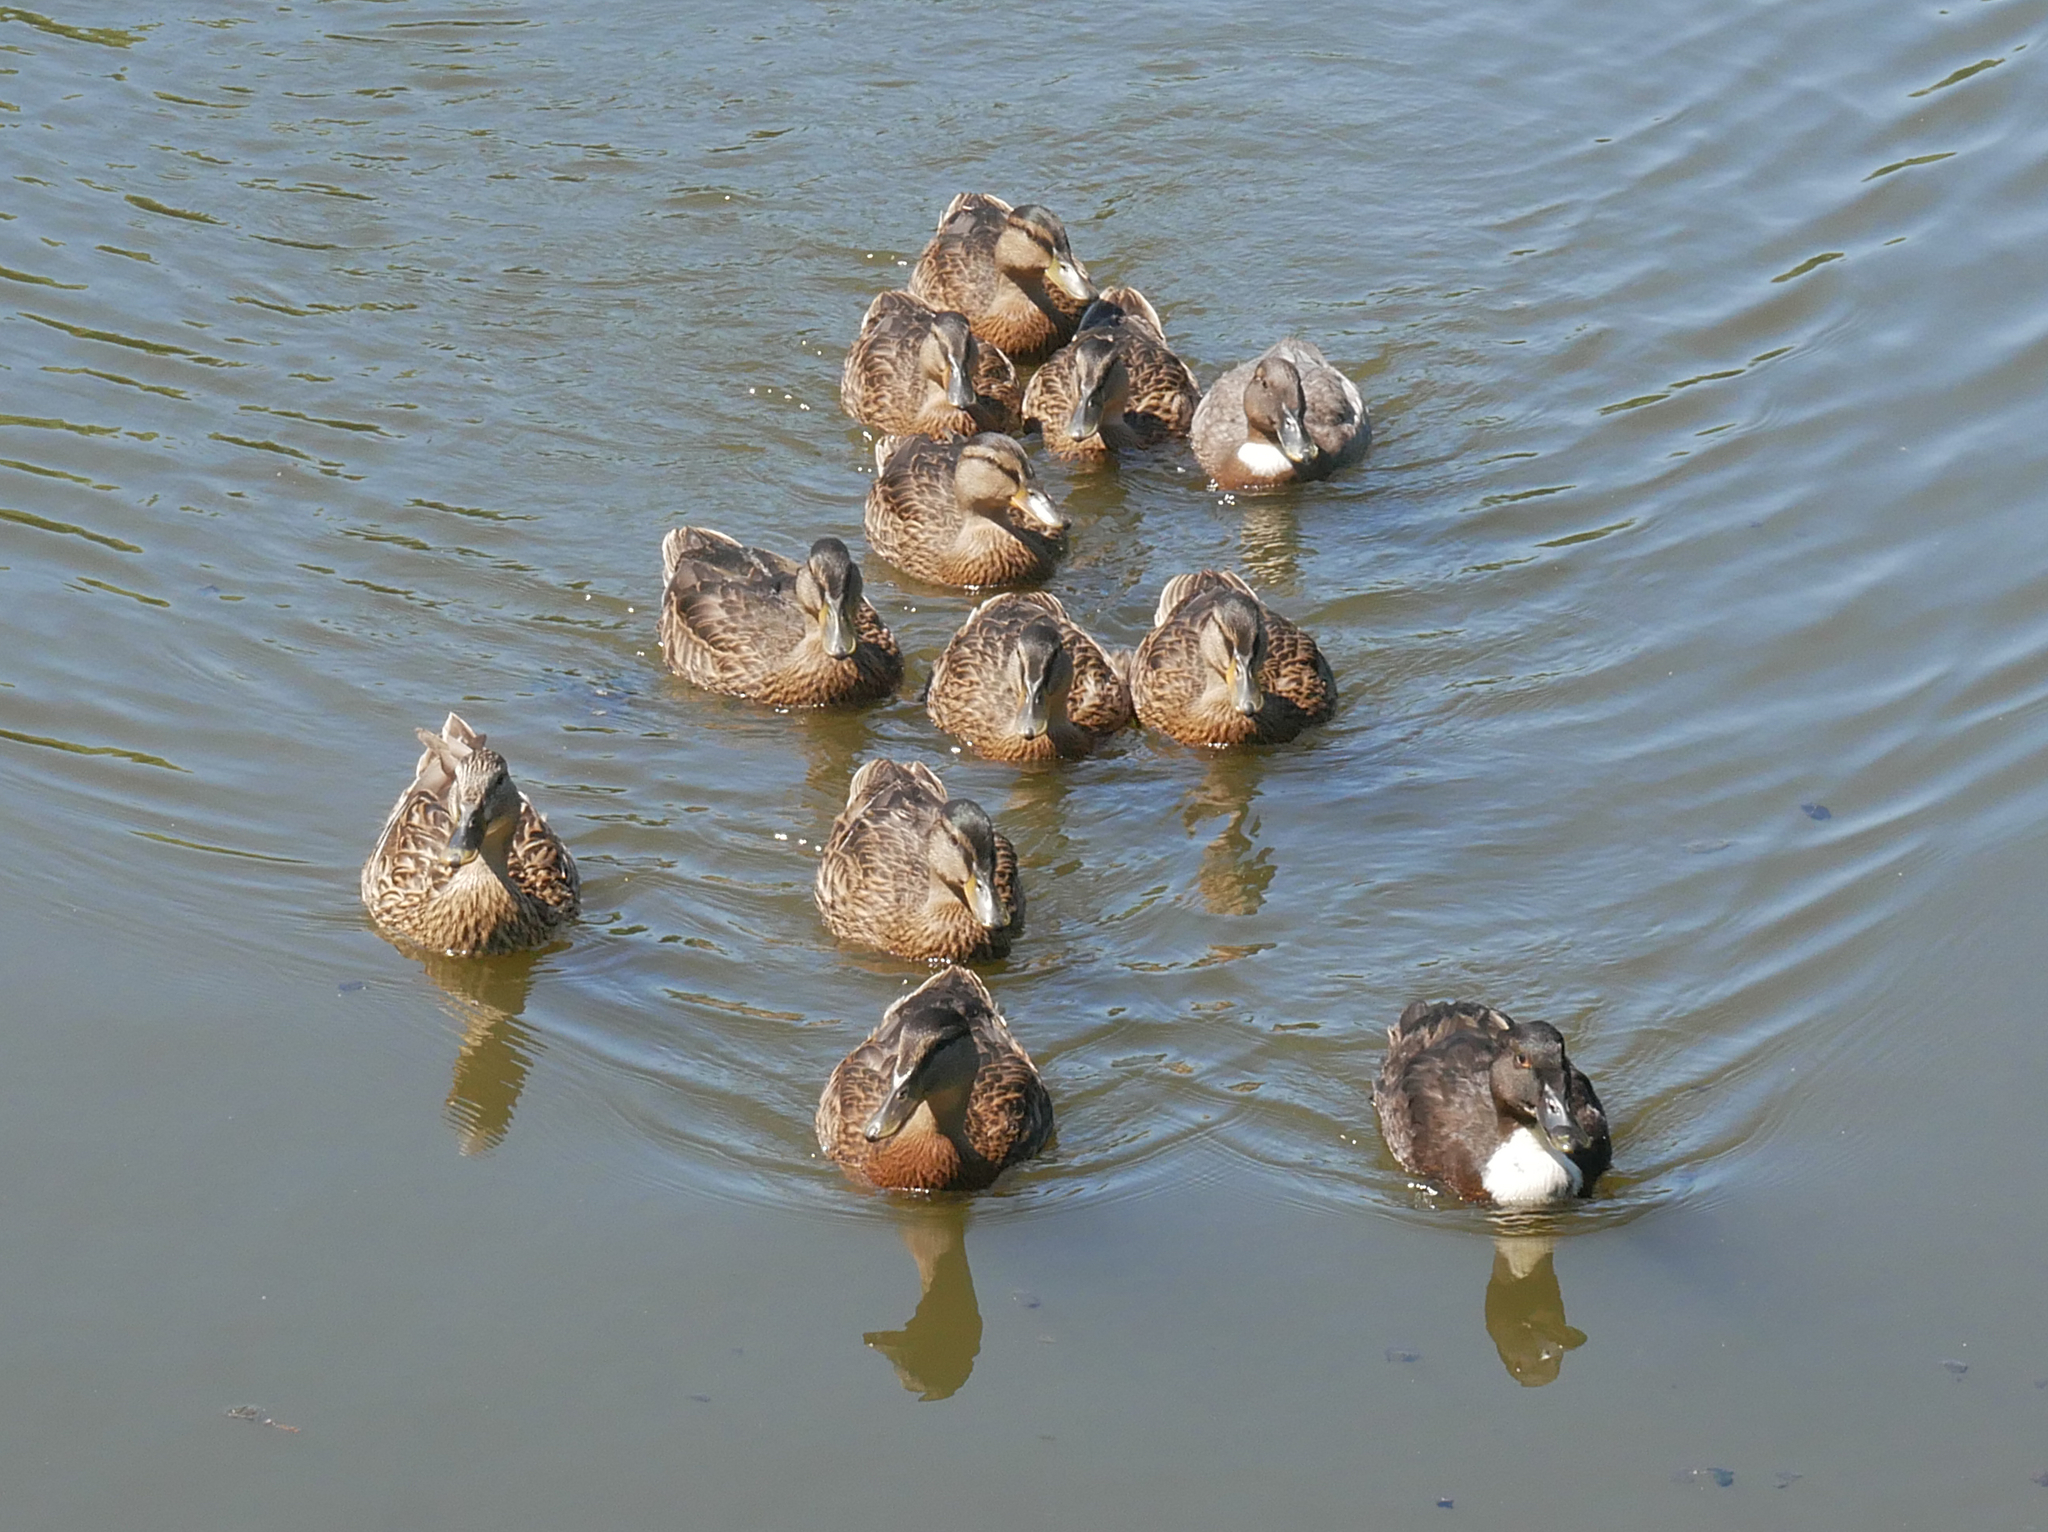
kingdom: Animalia
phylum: Chordata
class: Aves
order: Anseriformes
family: Anatidae
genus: Anas
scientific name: Anas platyrhynchos
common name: Mallard
